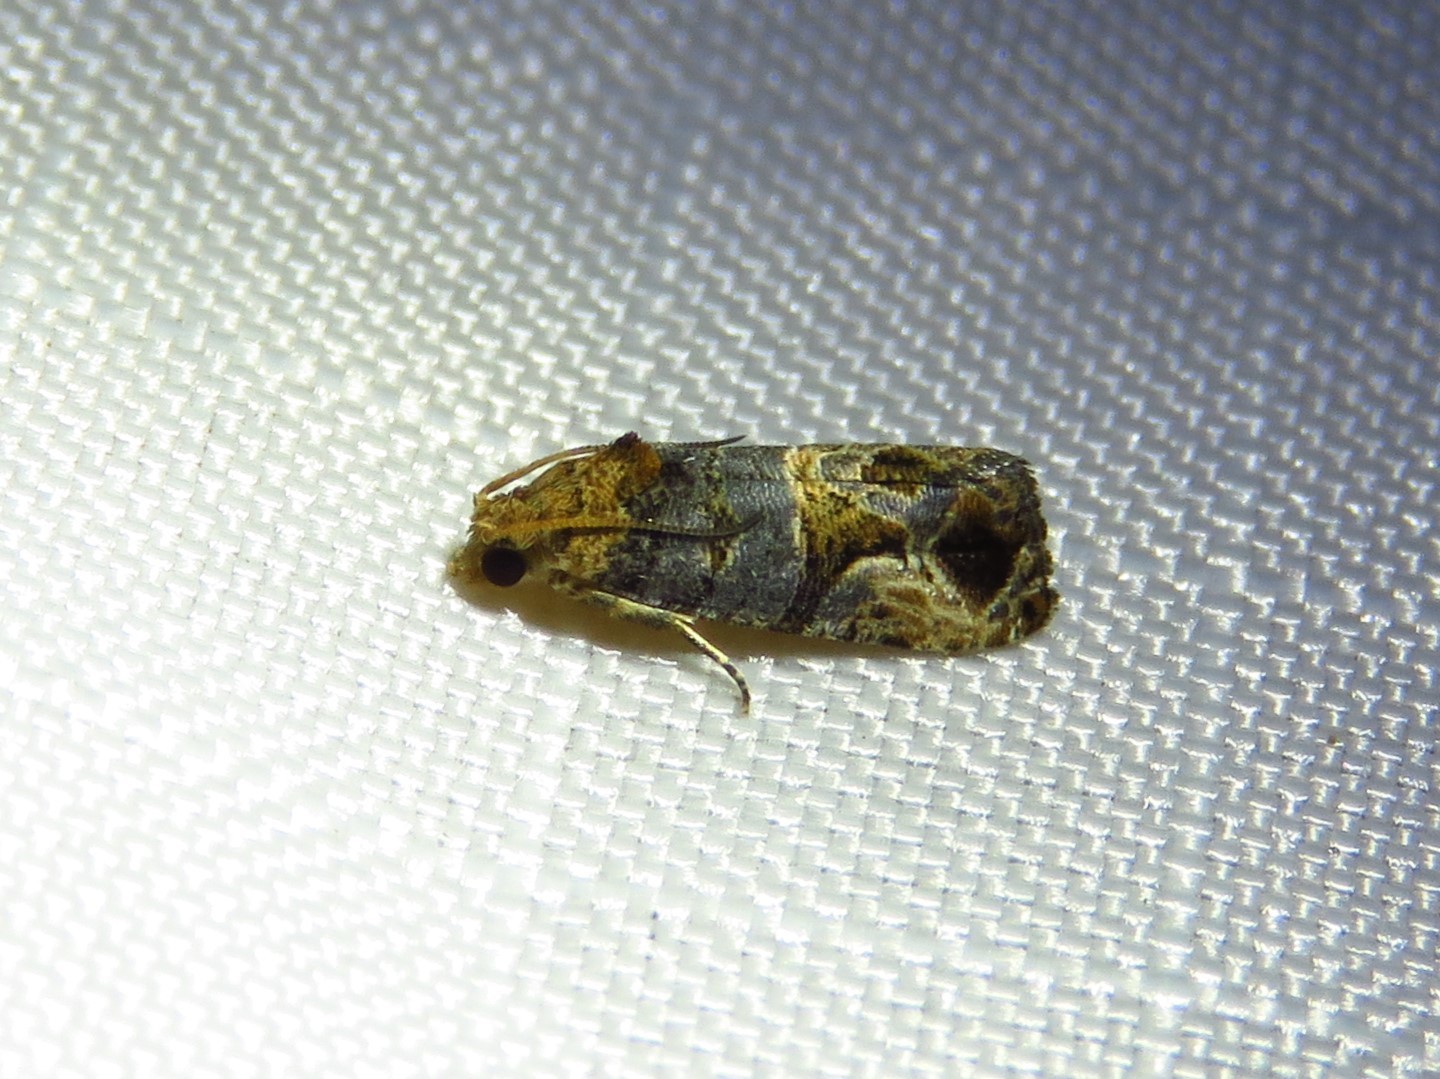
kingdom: Animalia
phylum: Arthropoda
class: Insecta
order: Lepidoptera
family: Tortricidae
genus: Paralobesia
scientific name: Paralobesia viteana
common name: Grape berry moth
